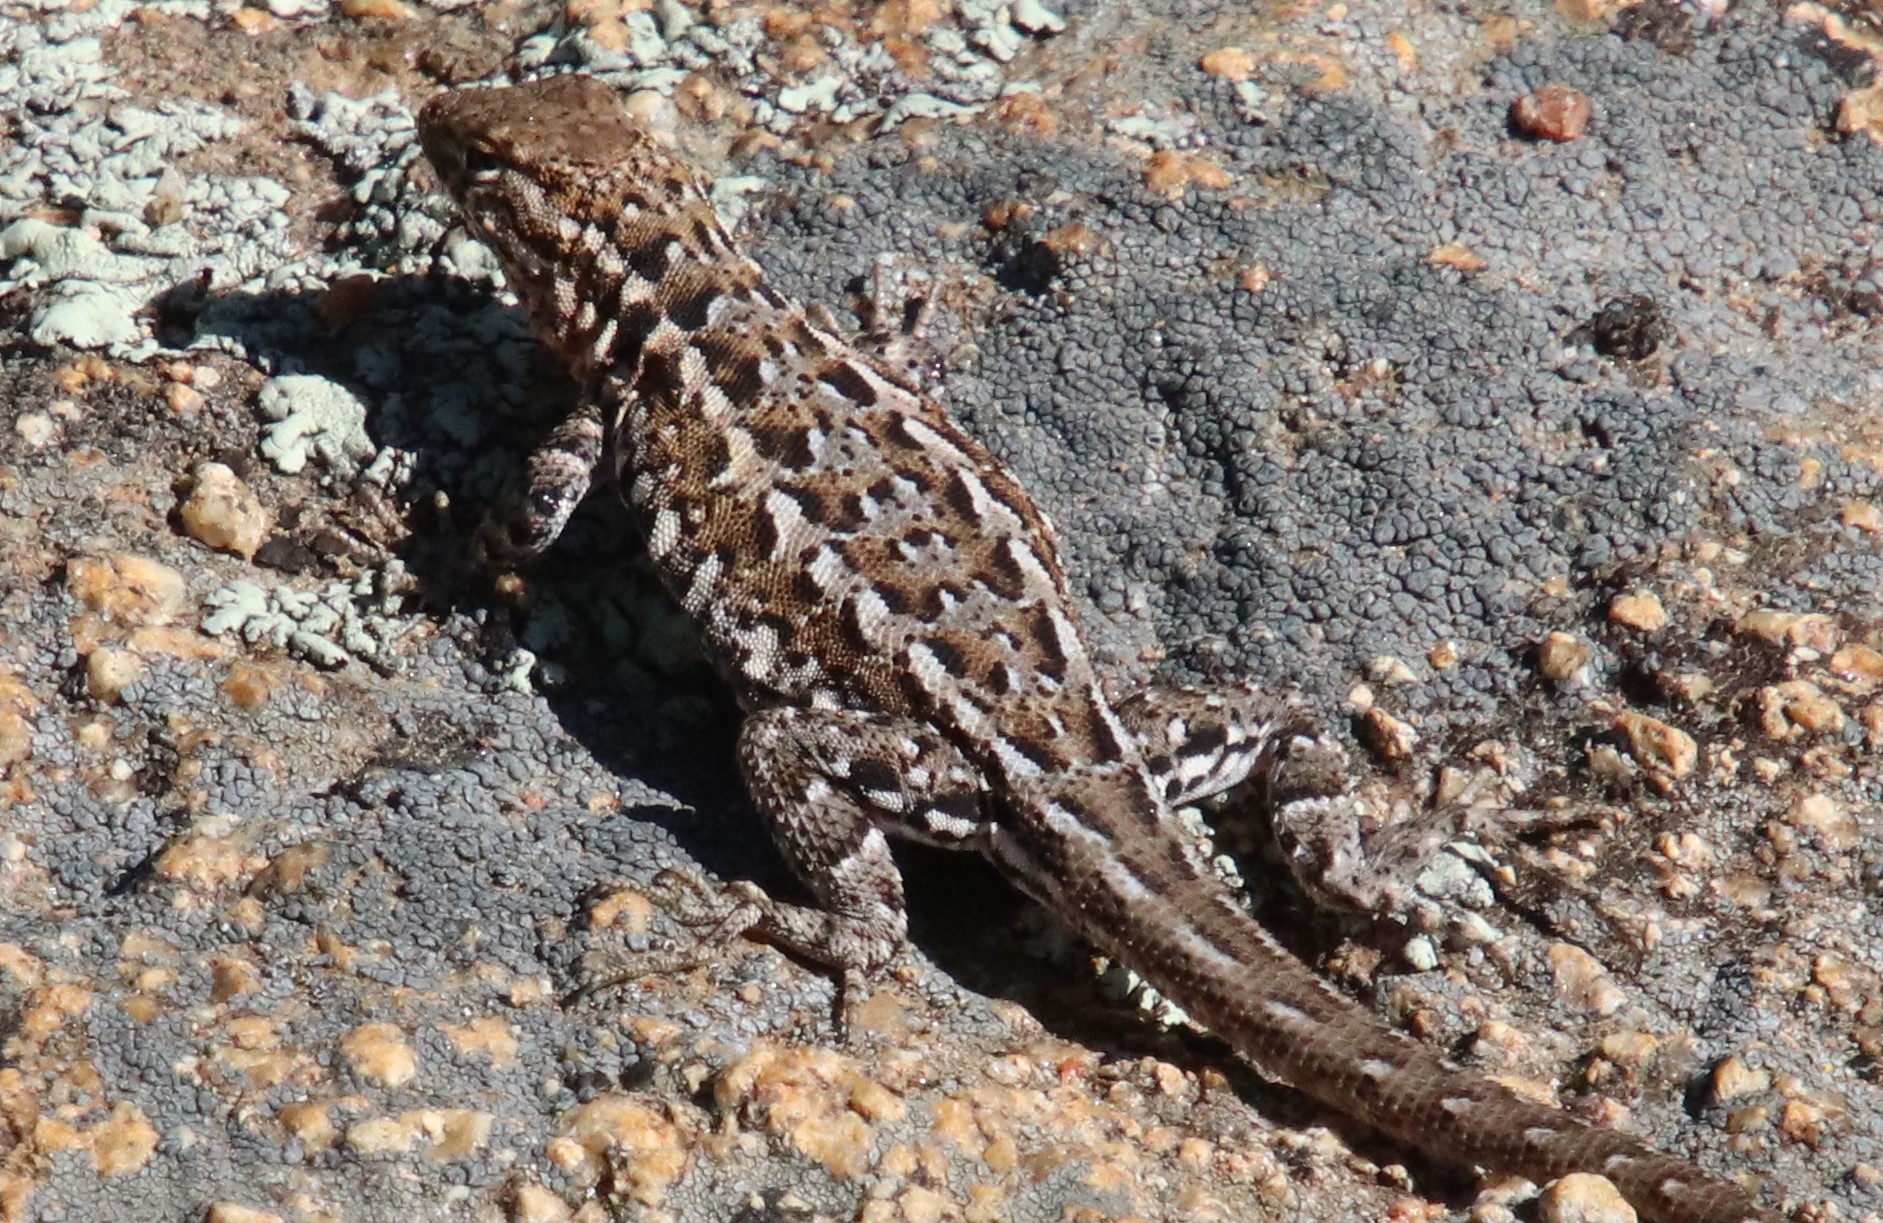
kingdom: Animalia
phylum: Chordata
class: Squamata
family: Phrynosomatidae
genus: Uta
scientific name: Uta stansburiana
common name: Side-blotched lizard
